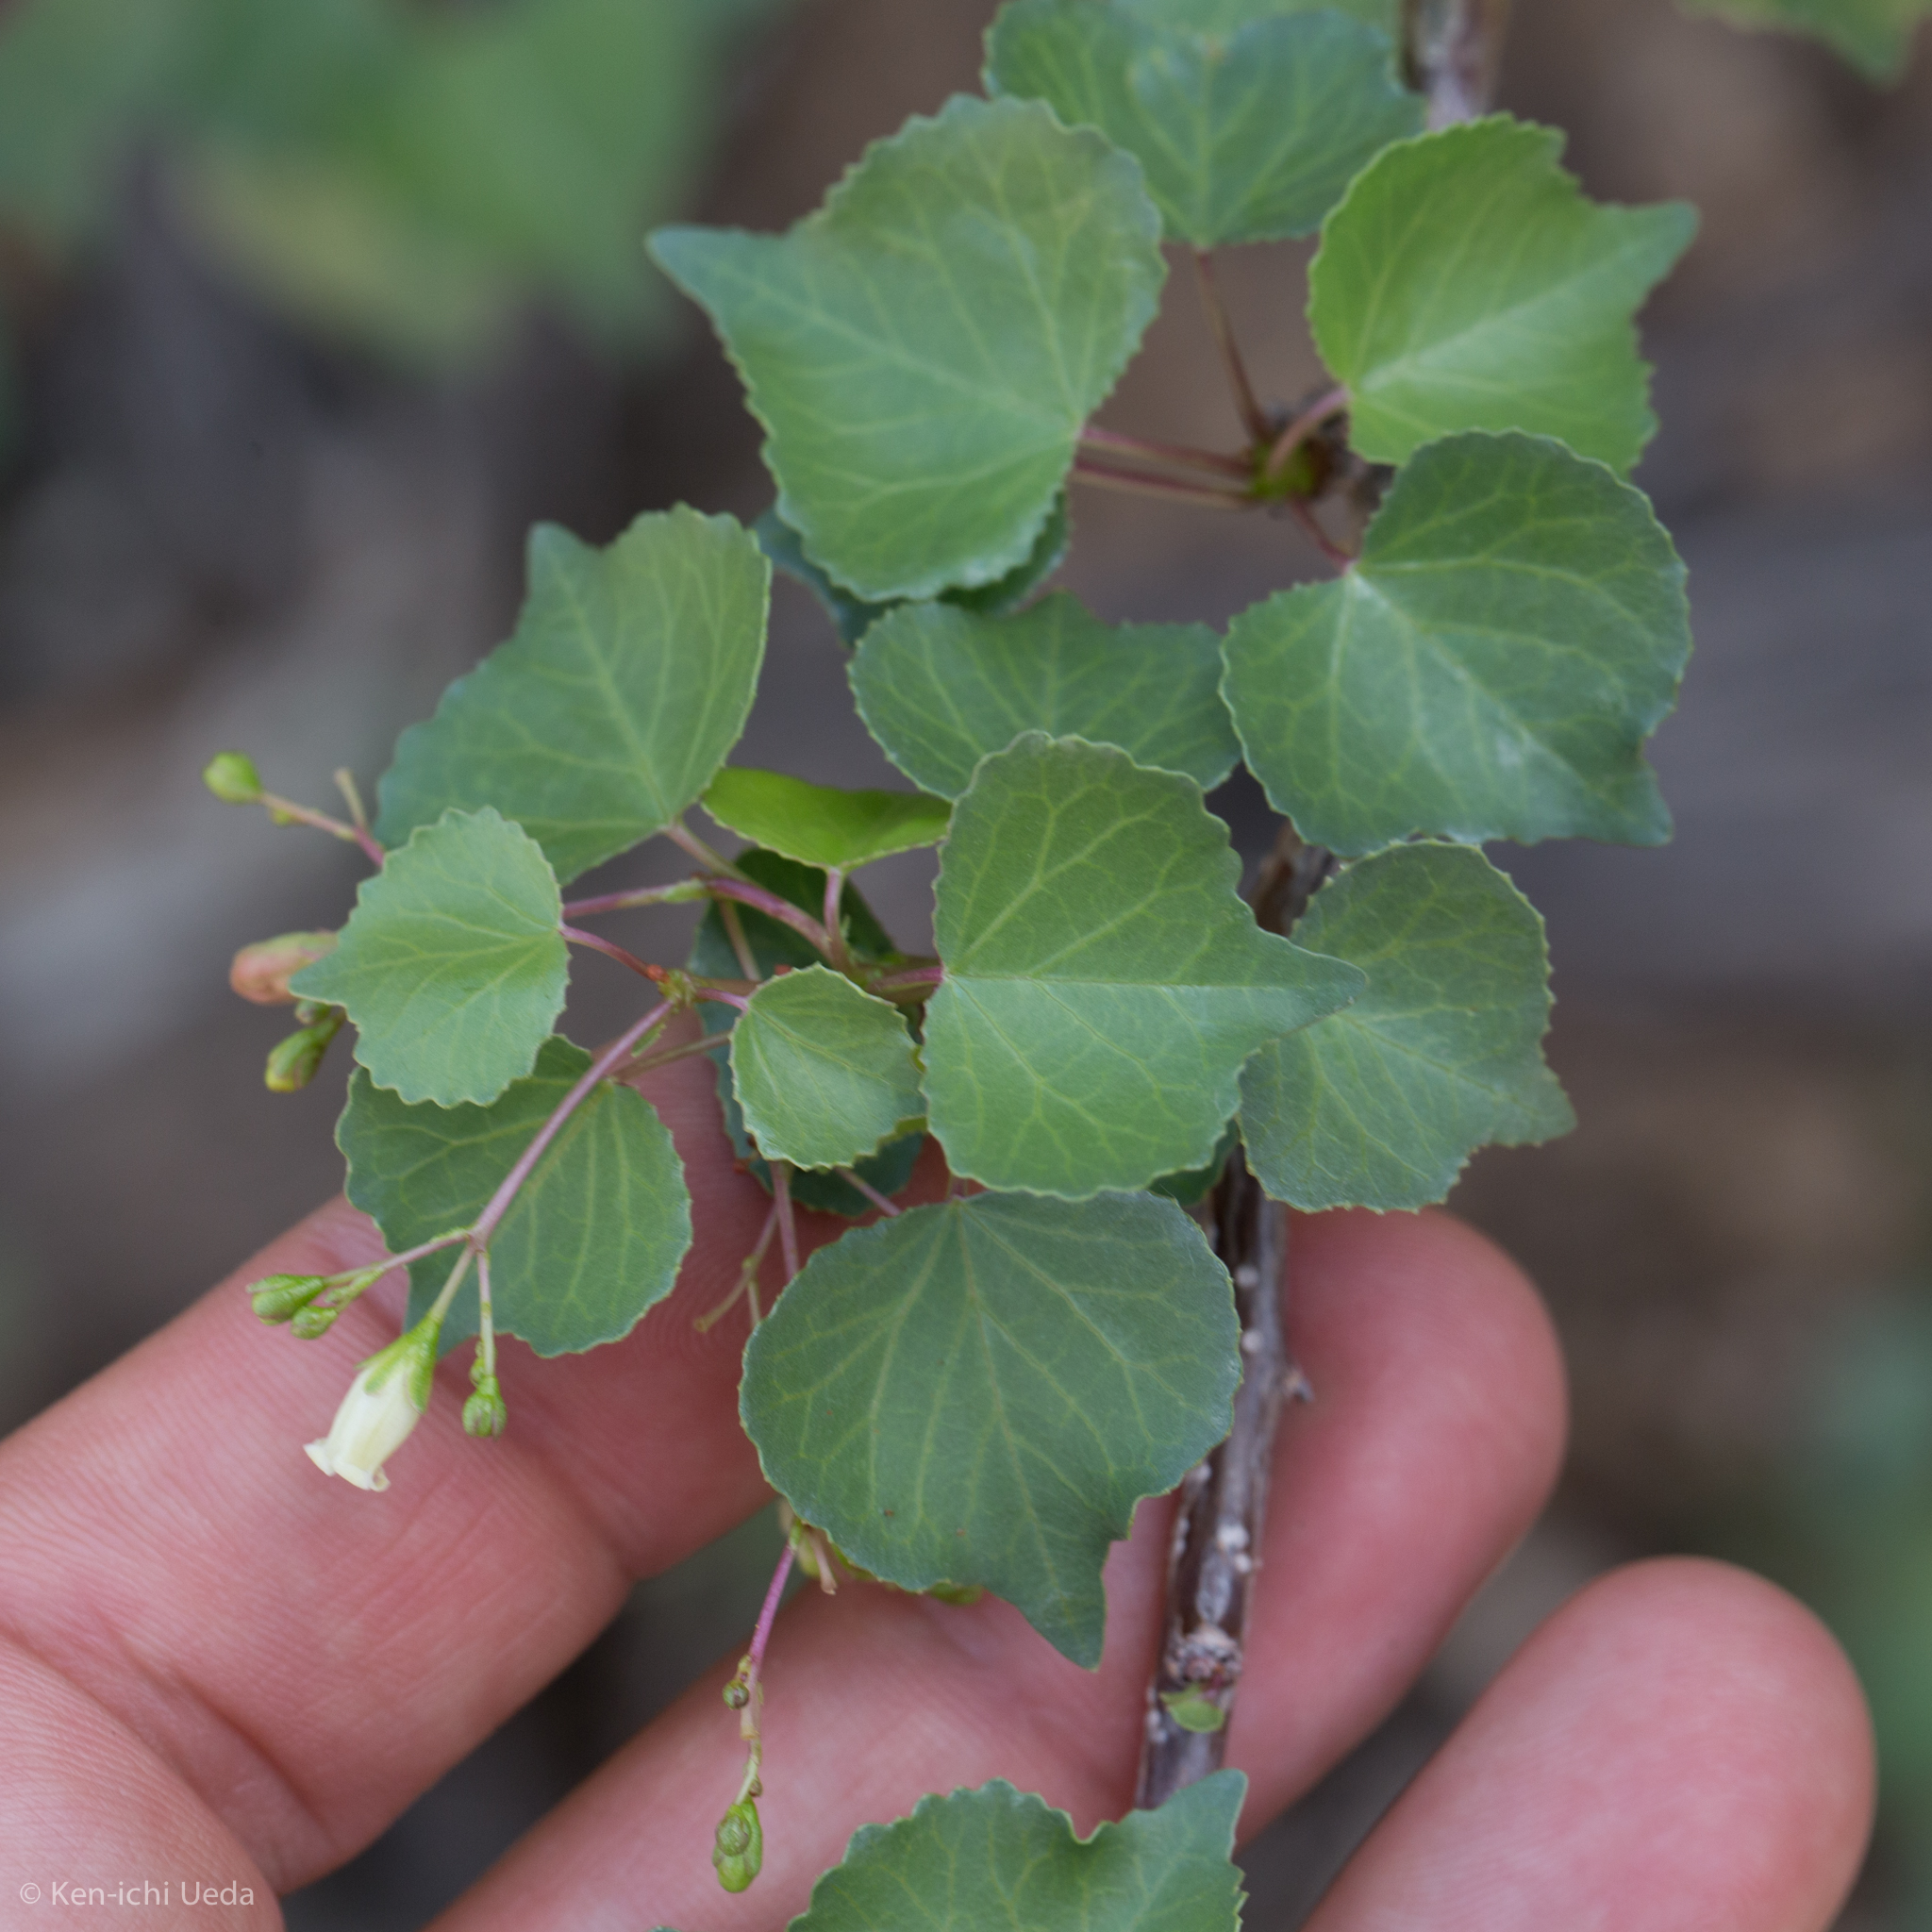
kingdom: Plantae
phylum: Tracheophyta
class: Magnoliopsida
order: Malpighiales
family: Euphorbiaceae
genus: Jatropha
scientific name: Jatropha cardiophylla
